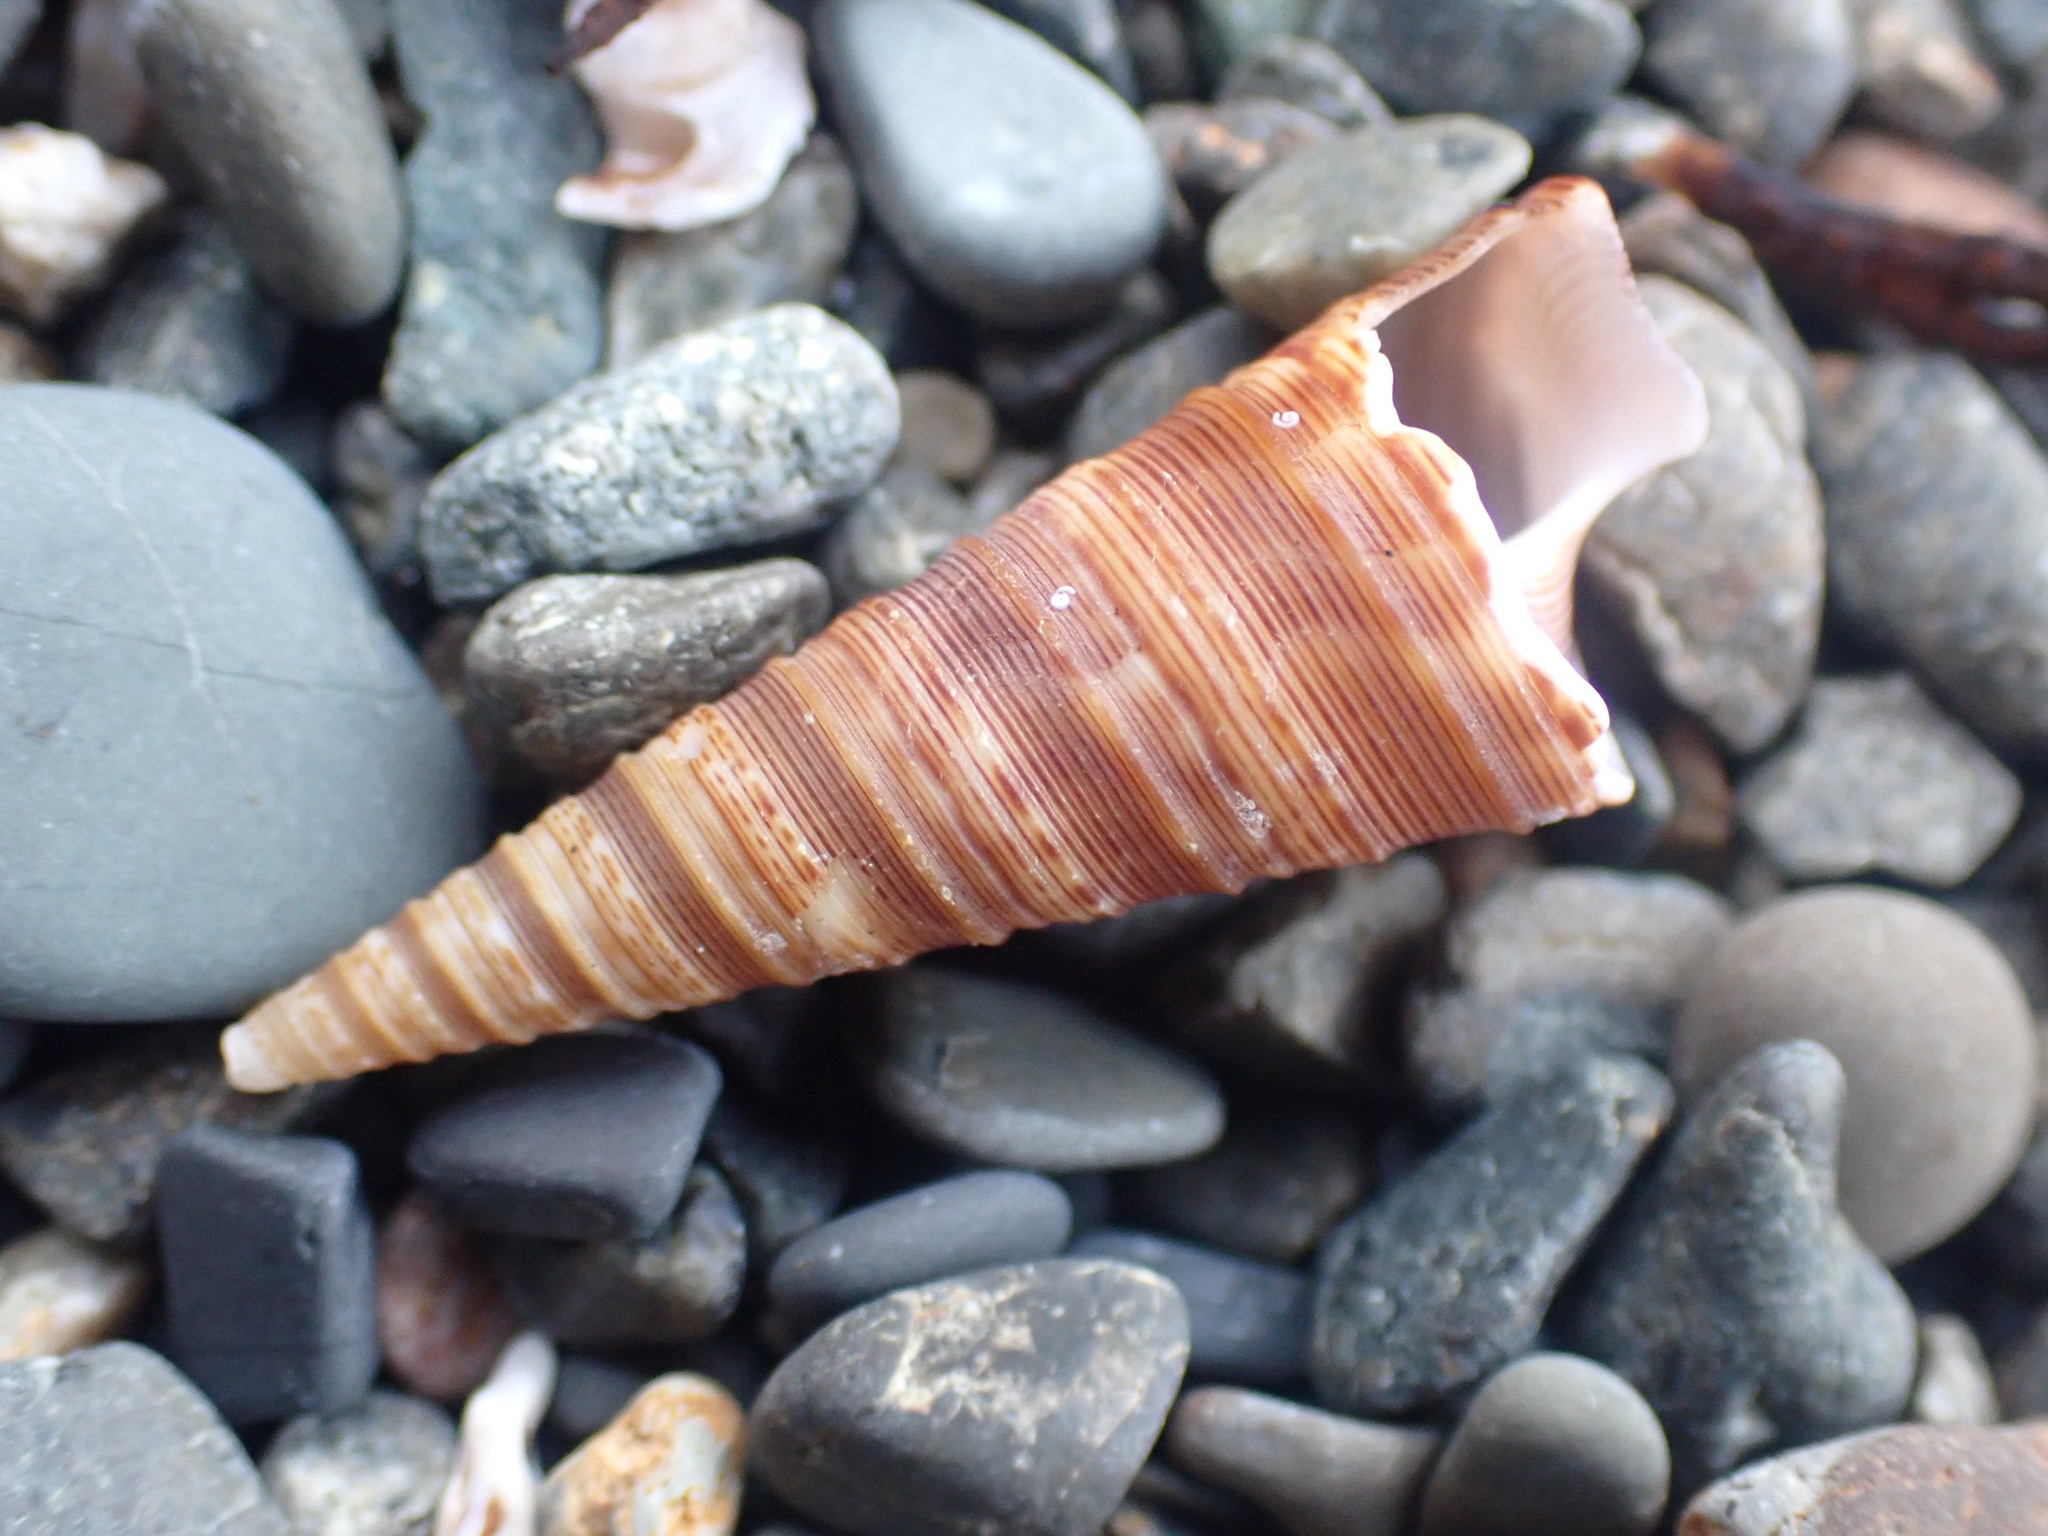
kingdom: Animalia
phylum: Mollusca
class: Gastropoda
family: Turritellidae
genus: Maoricolpus
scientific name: Maoricolpus roseus
